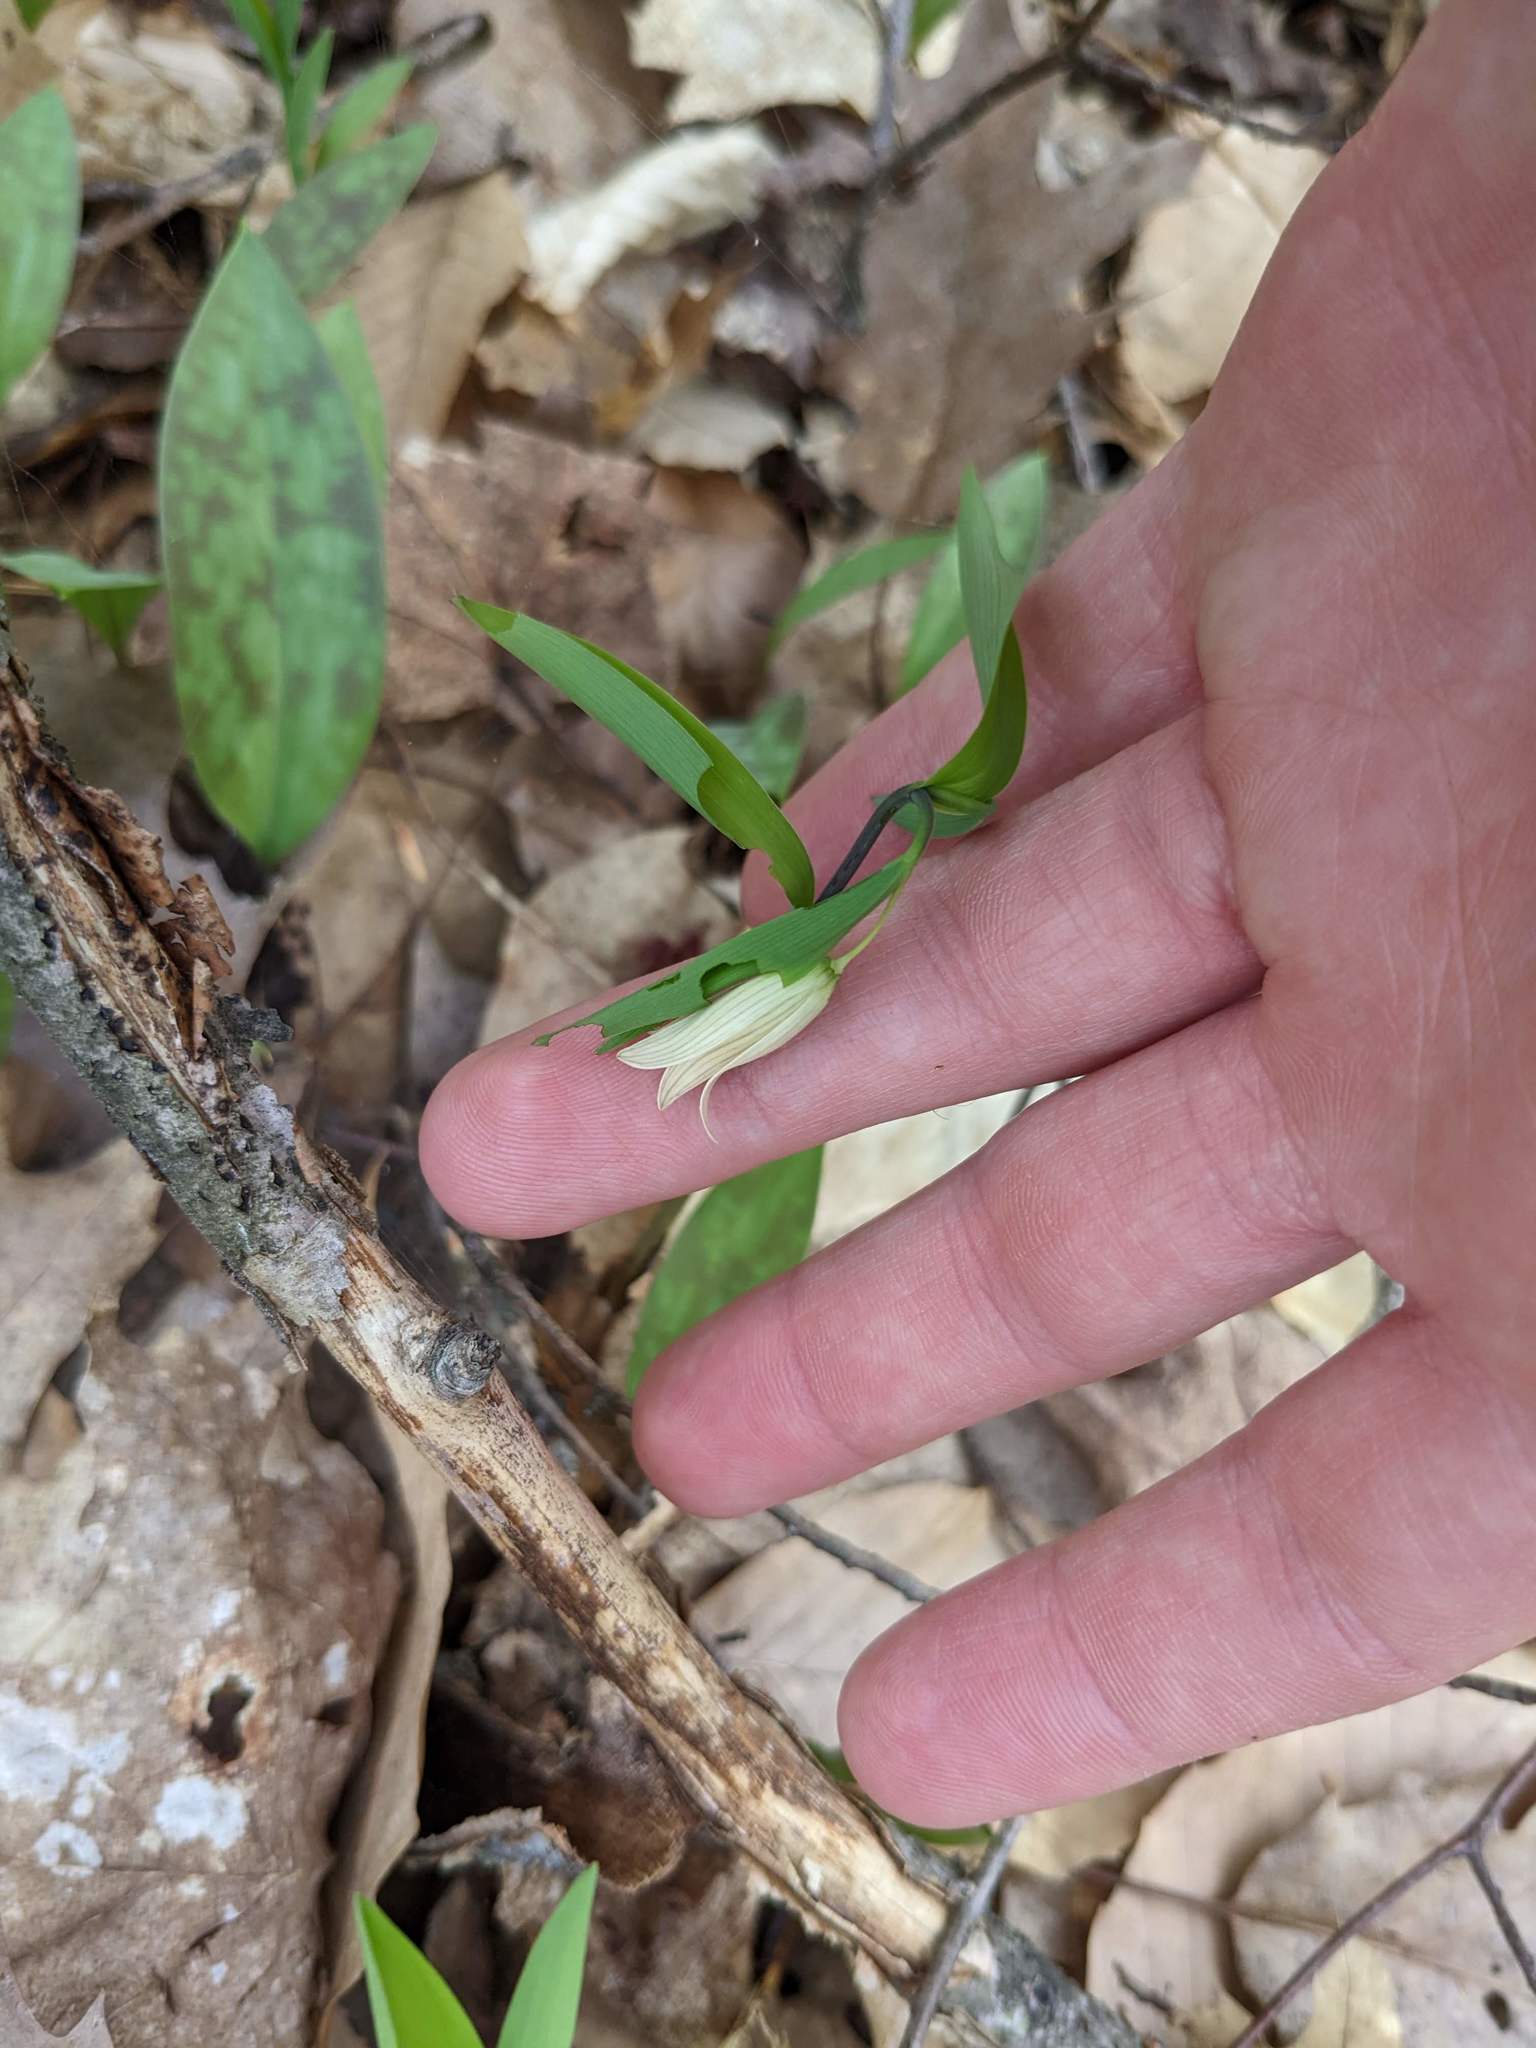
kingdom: Plantae
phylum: Tracheophyta
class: Liliopsida
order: Liliales
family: Colchicaceae
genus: Uvularia
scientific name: Uvularia sessilifolia
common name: Straw-lily
